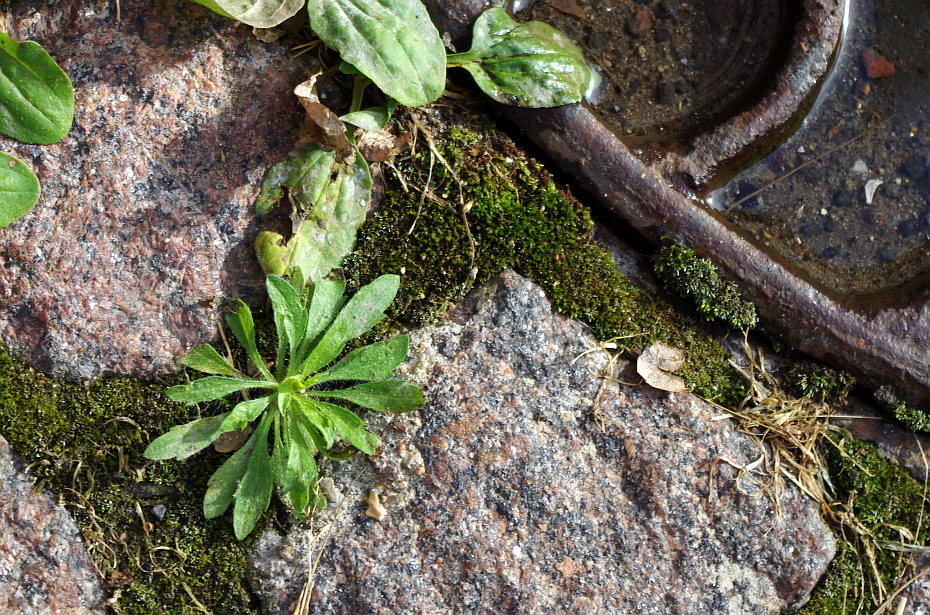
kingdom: Plantae
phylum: Tracheophyta
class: Magnoliopsida
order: Asterales
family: Asteraceae
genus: Erigeron
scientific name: Erigeron canadensis
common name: Canadian fleabane
